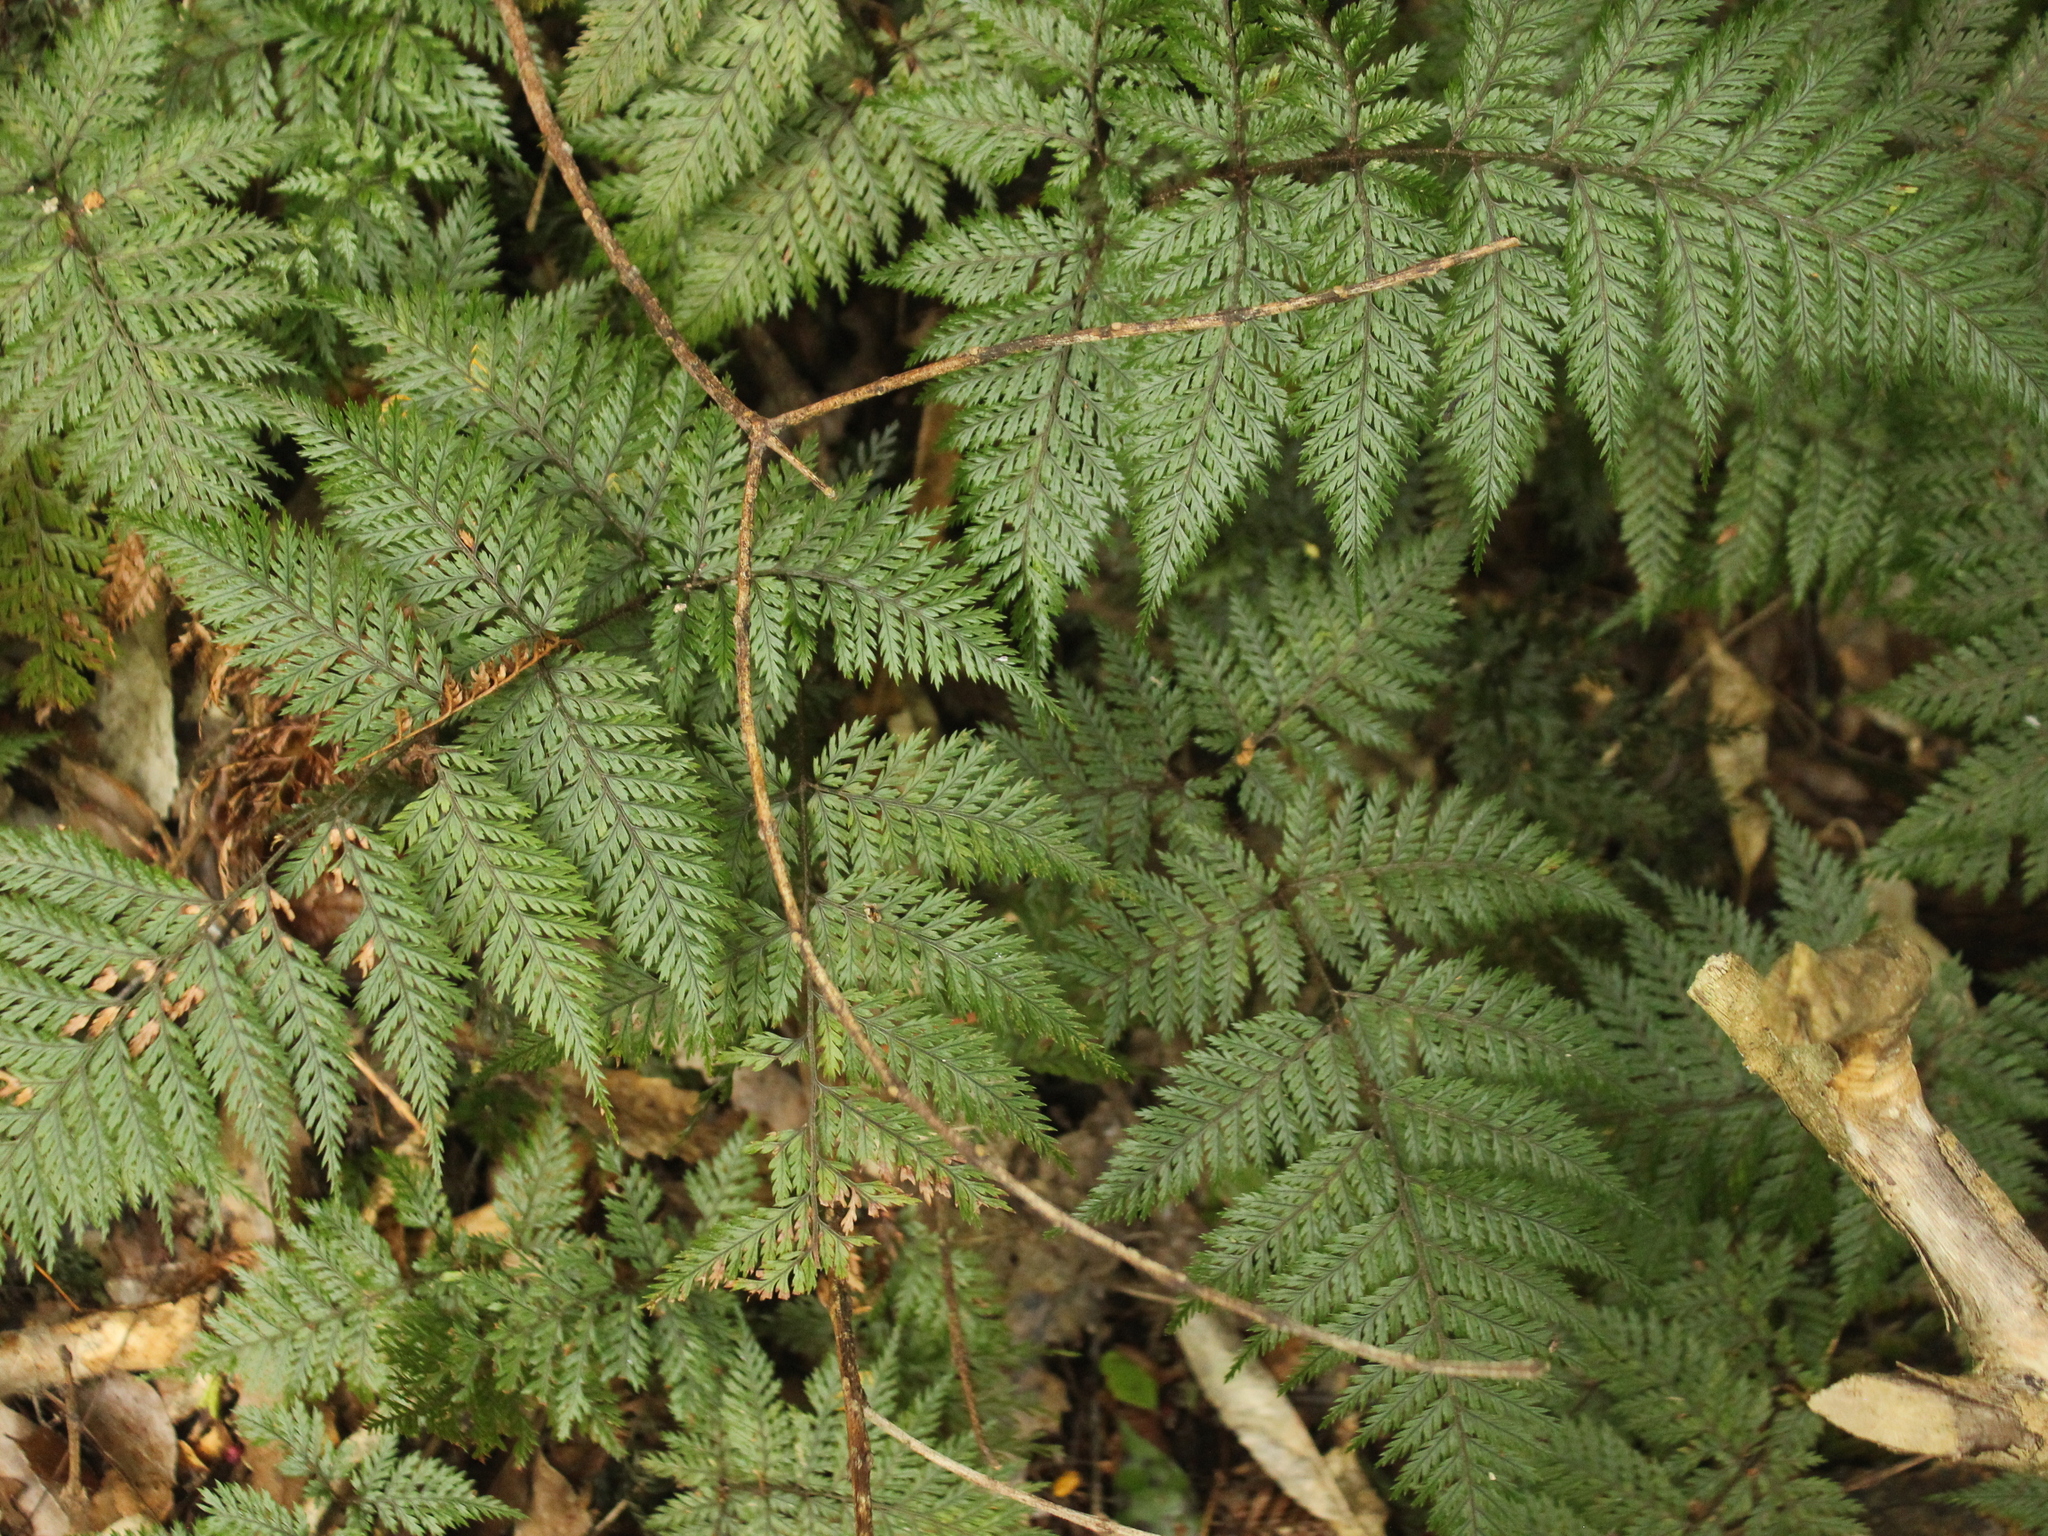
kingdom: Plantae
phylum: Tracheophyta
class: Polypodiopsida
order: Polypodiales
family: Dryopteridaceae
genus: Lastreopsis
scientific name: Lastreopsis hispida
